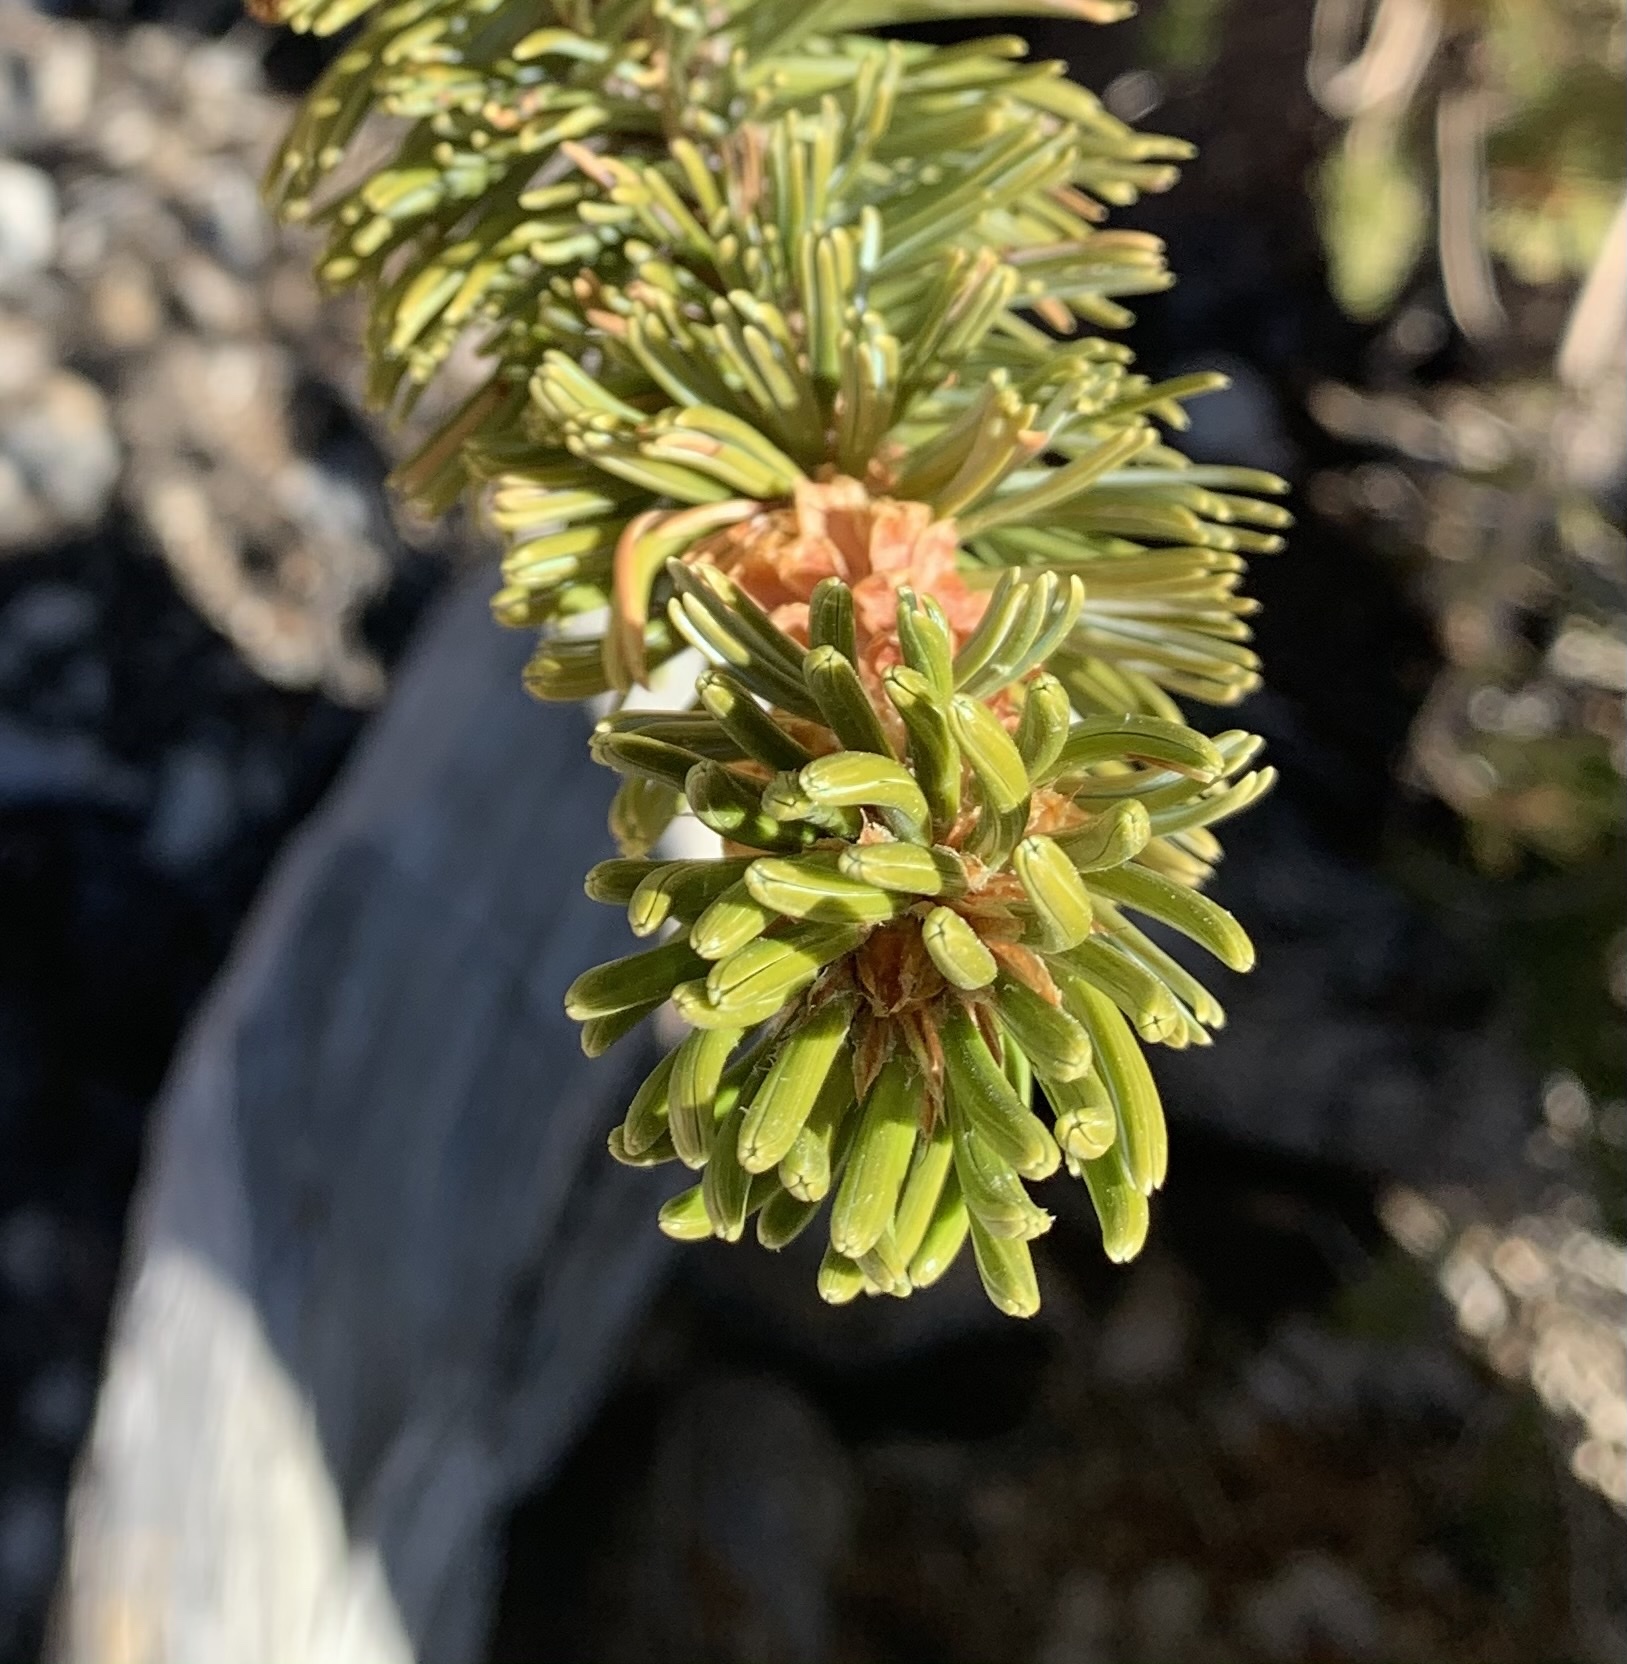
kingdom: Plantae
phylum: Tracheophyta
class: Pinopsida
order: Pinales
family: Pinaceae
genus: Pinus
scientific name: Pinus longaeva
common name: Intermountain bristlecone pine
